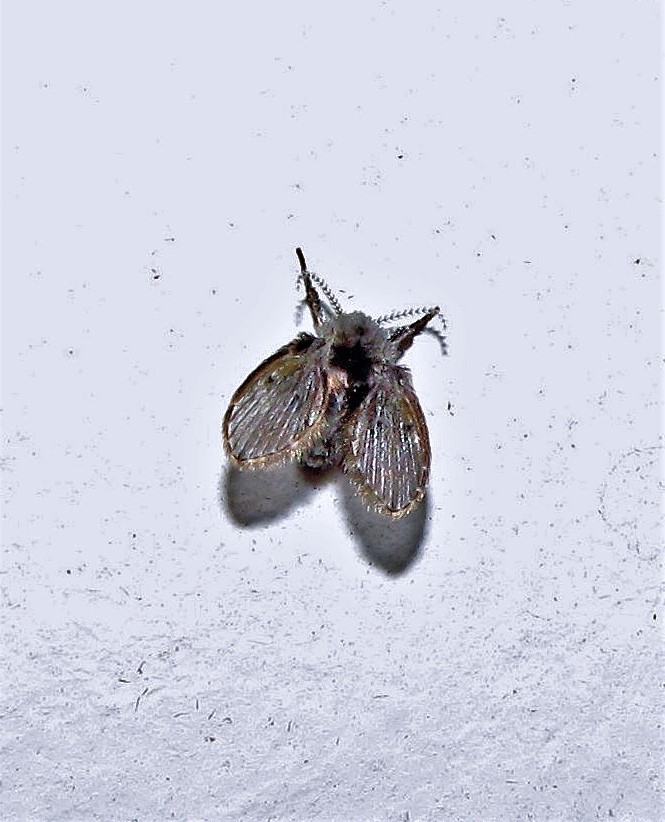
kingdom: Animalia
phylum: Arthropoda
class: Insecta
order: Diptera
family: Psychodidae
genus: Clogmia
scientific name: Clogmia albipunctatus
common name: White-spotted moth fly
